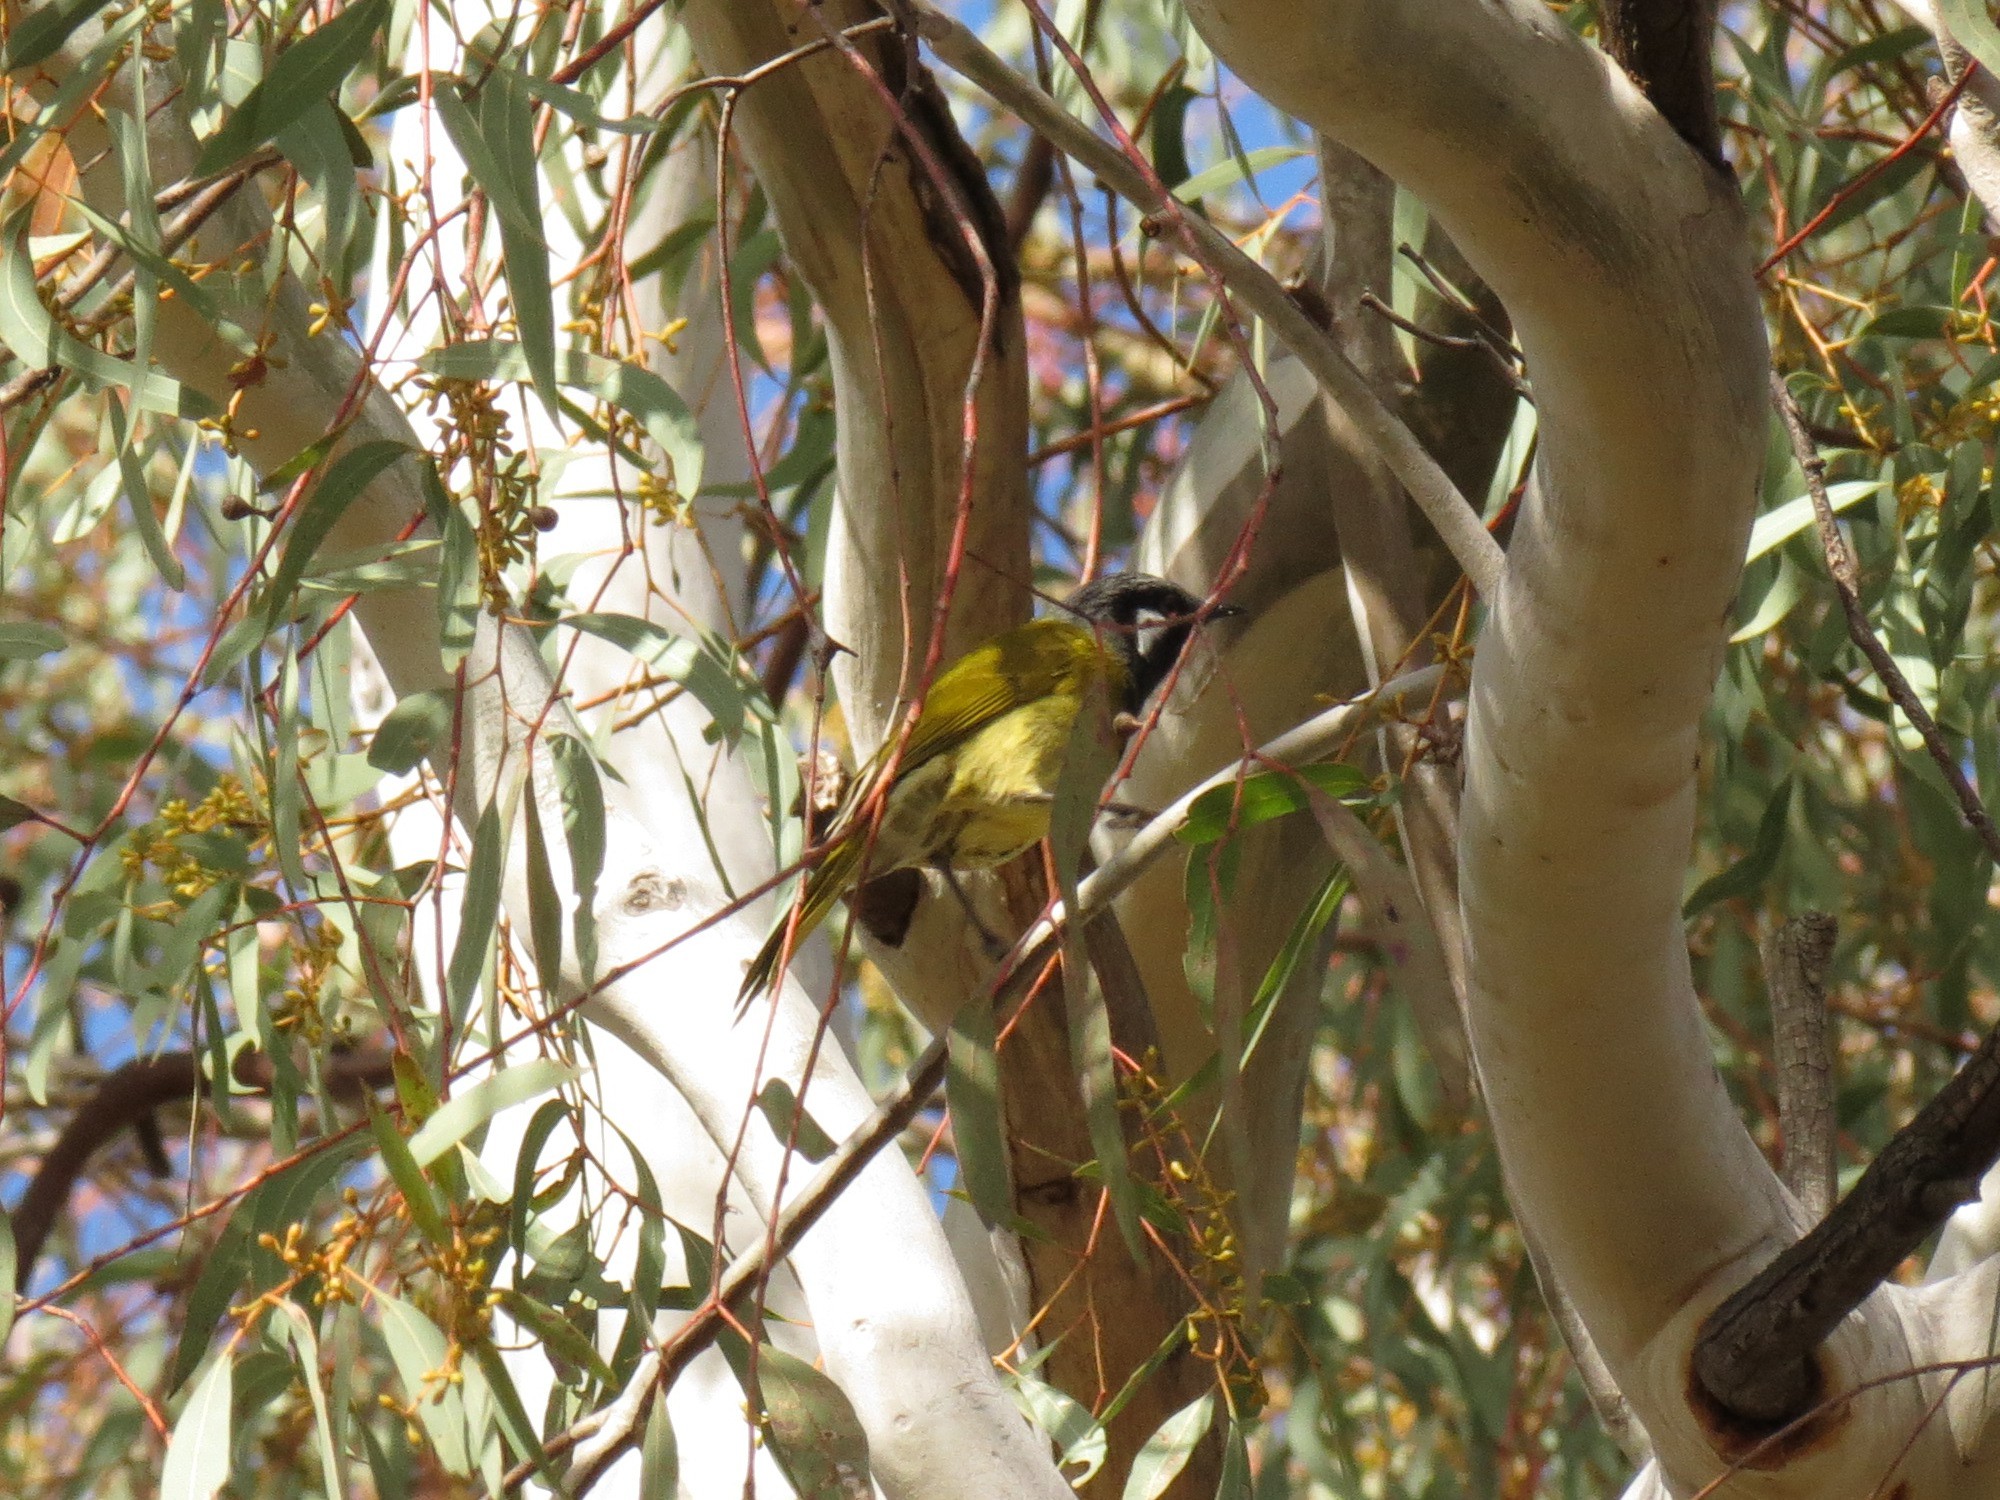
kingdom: Animalia
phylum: Chordata
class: Aves
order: Passeriformes
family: Meliphagidae
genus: Nesoptilotis
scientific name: Nesoptilotis leucotis
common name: White-eared honeyeater
